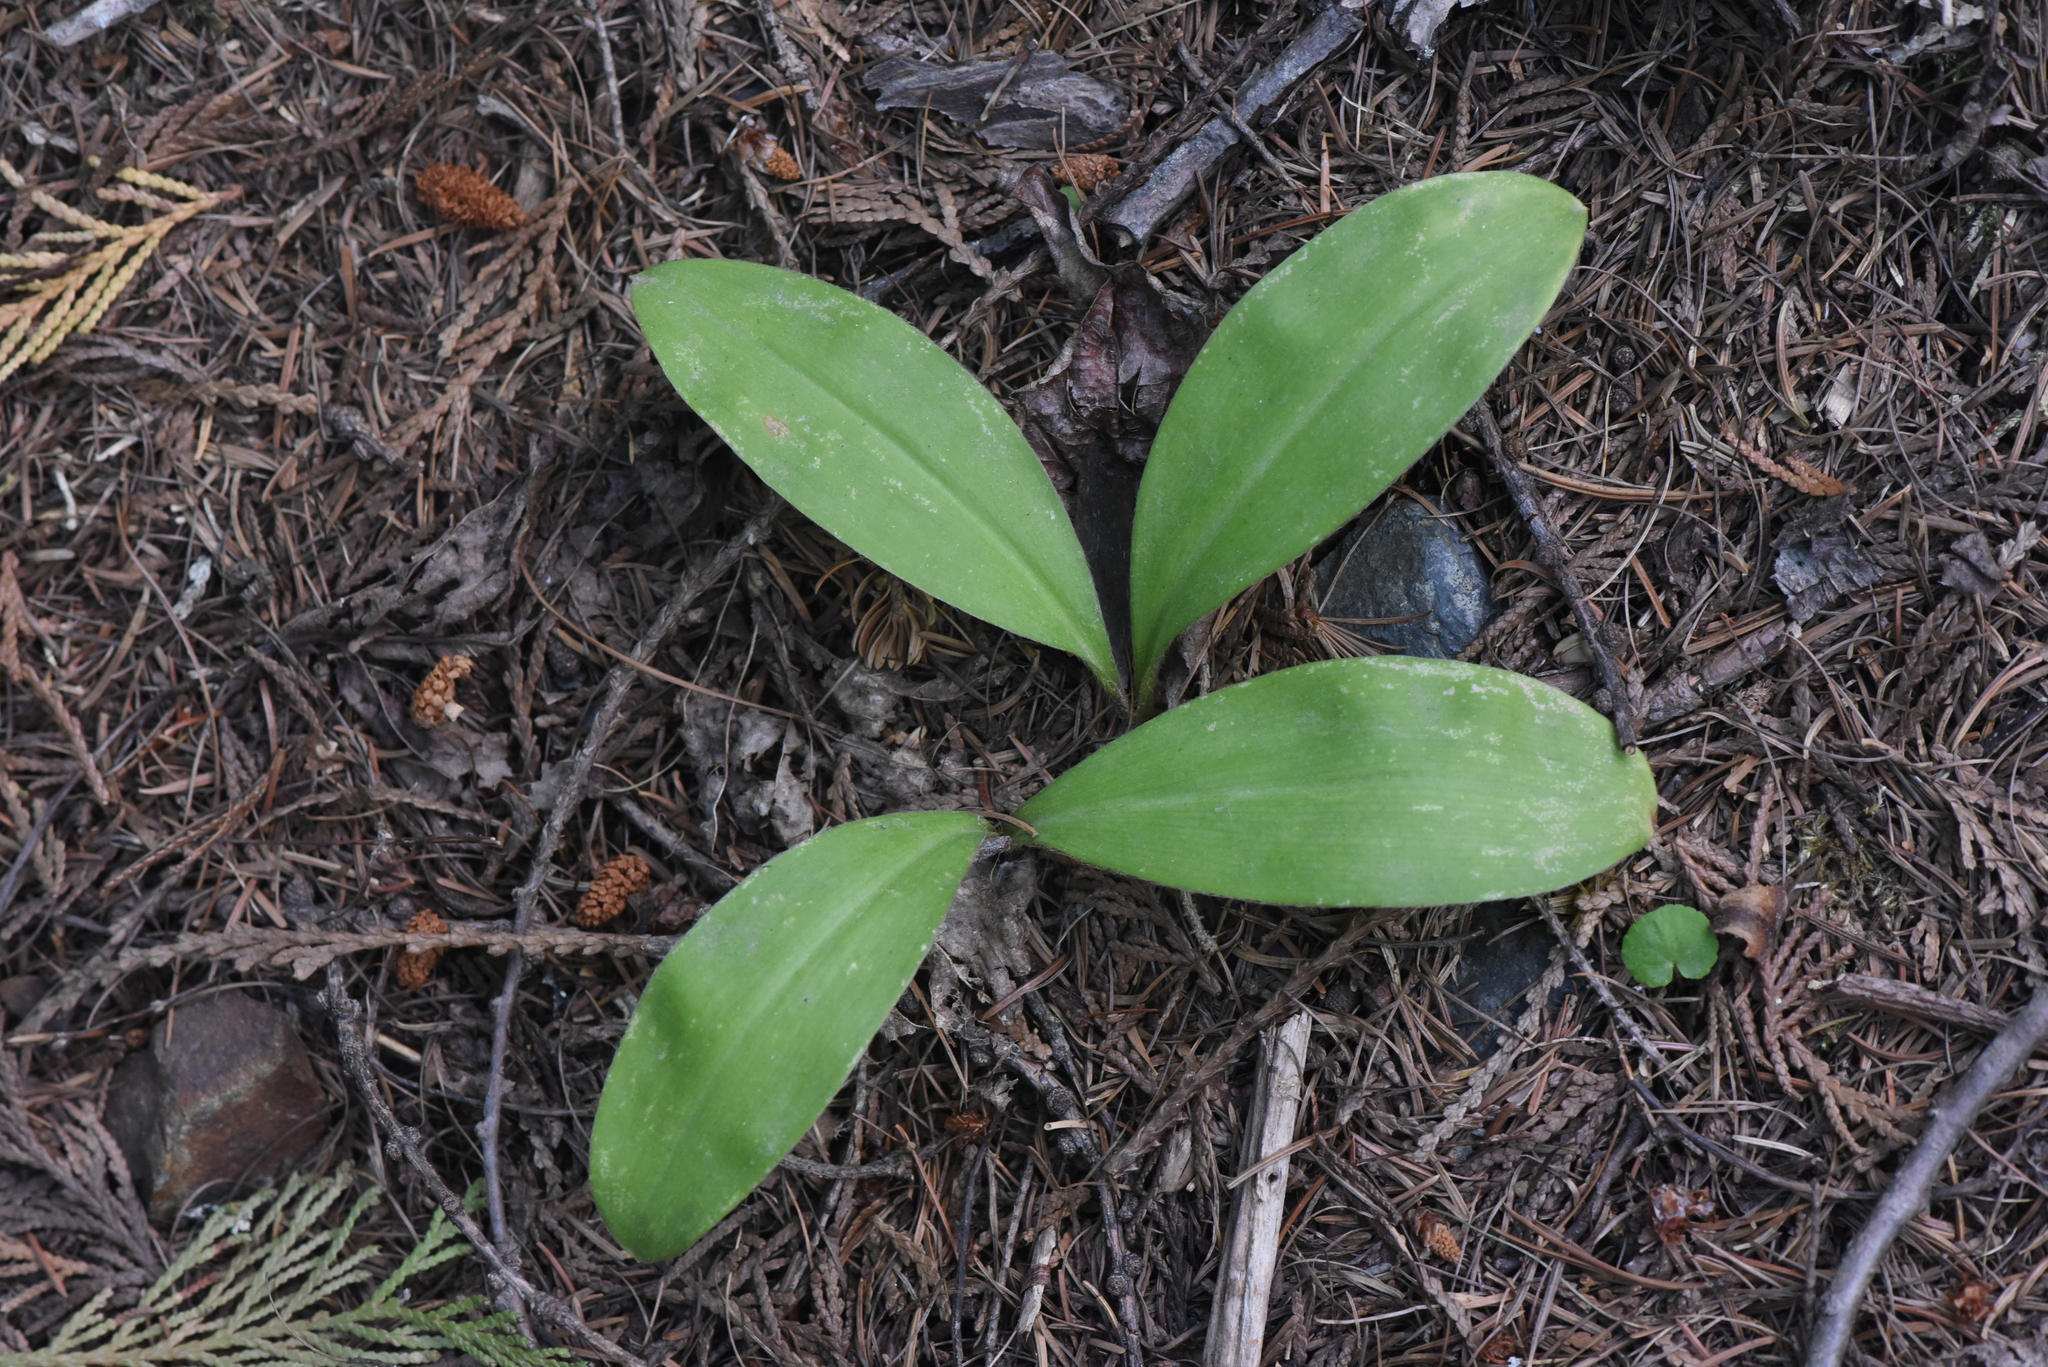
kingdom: Plantae
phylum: Tracheophyta
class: Liliopsida
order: Liliales
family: Liliaceae
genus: Clintonia
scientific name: Clintonia uniflora
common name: Queen's cup
